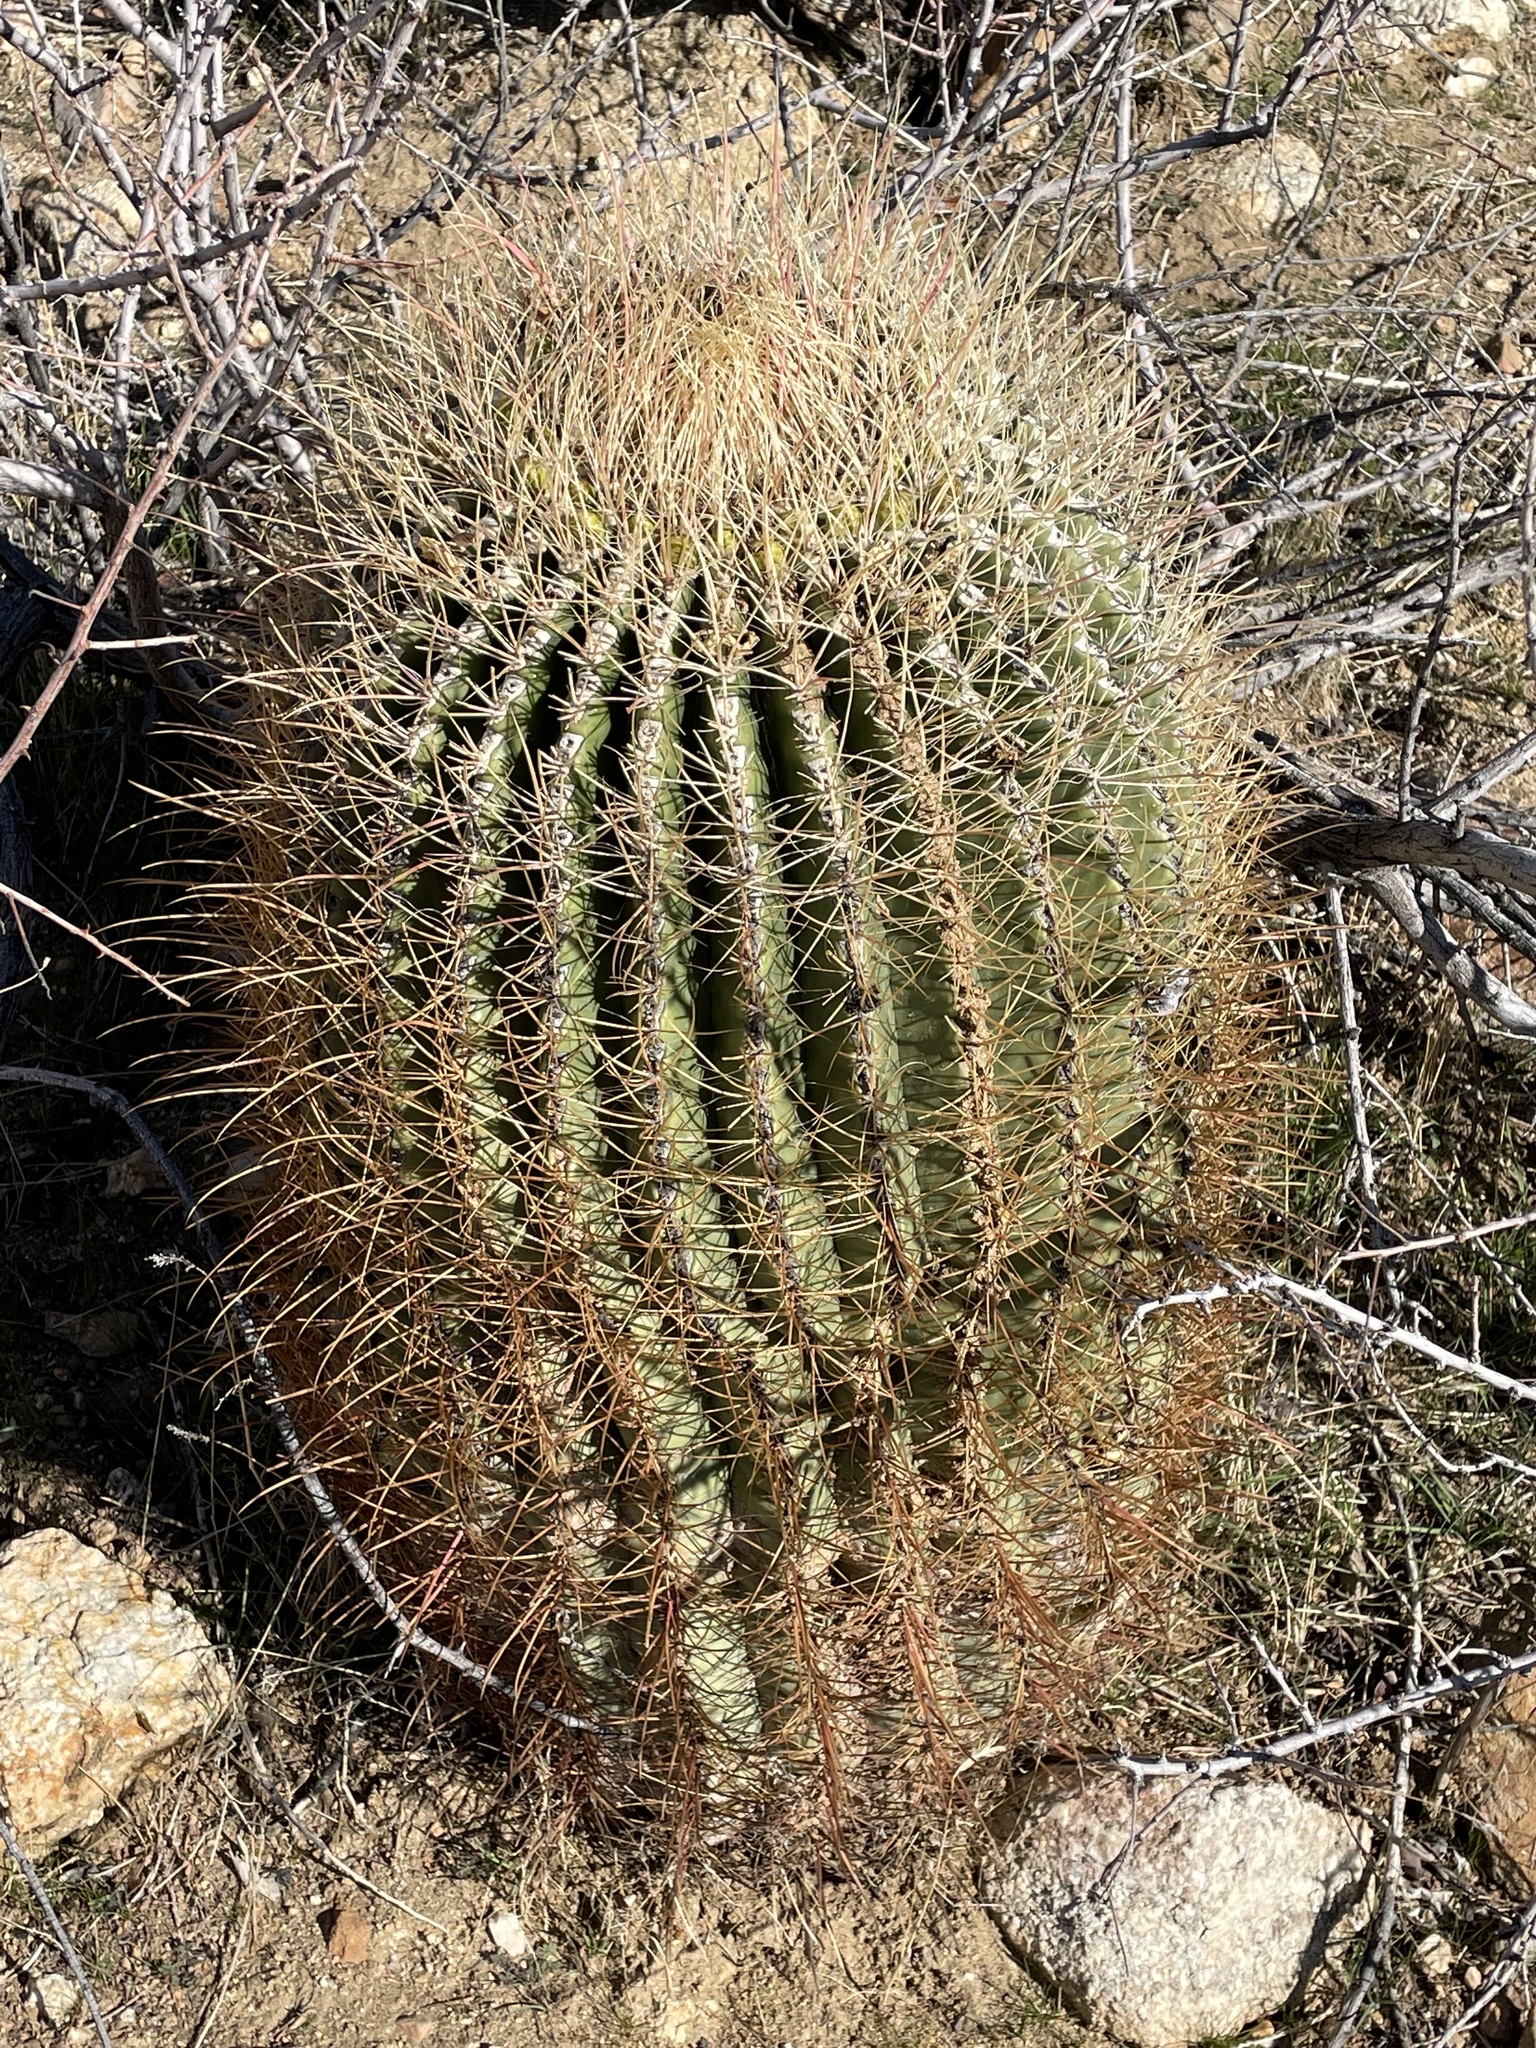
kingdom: Plantae
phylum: Tracheophyta
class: Magnoliopsida
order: Caryophyllales
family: Cactaceae
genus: Ferocactus
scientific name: Ferocactus cylindraceus
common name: California barrel cactus
